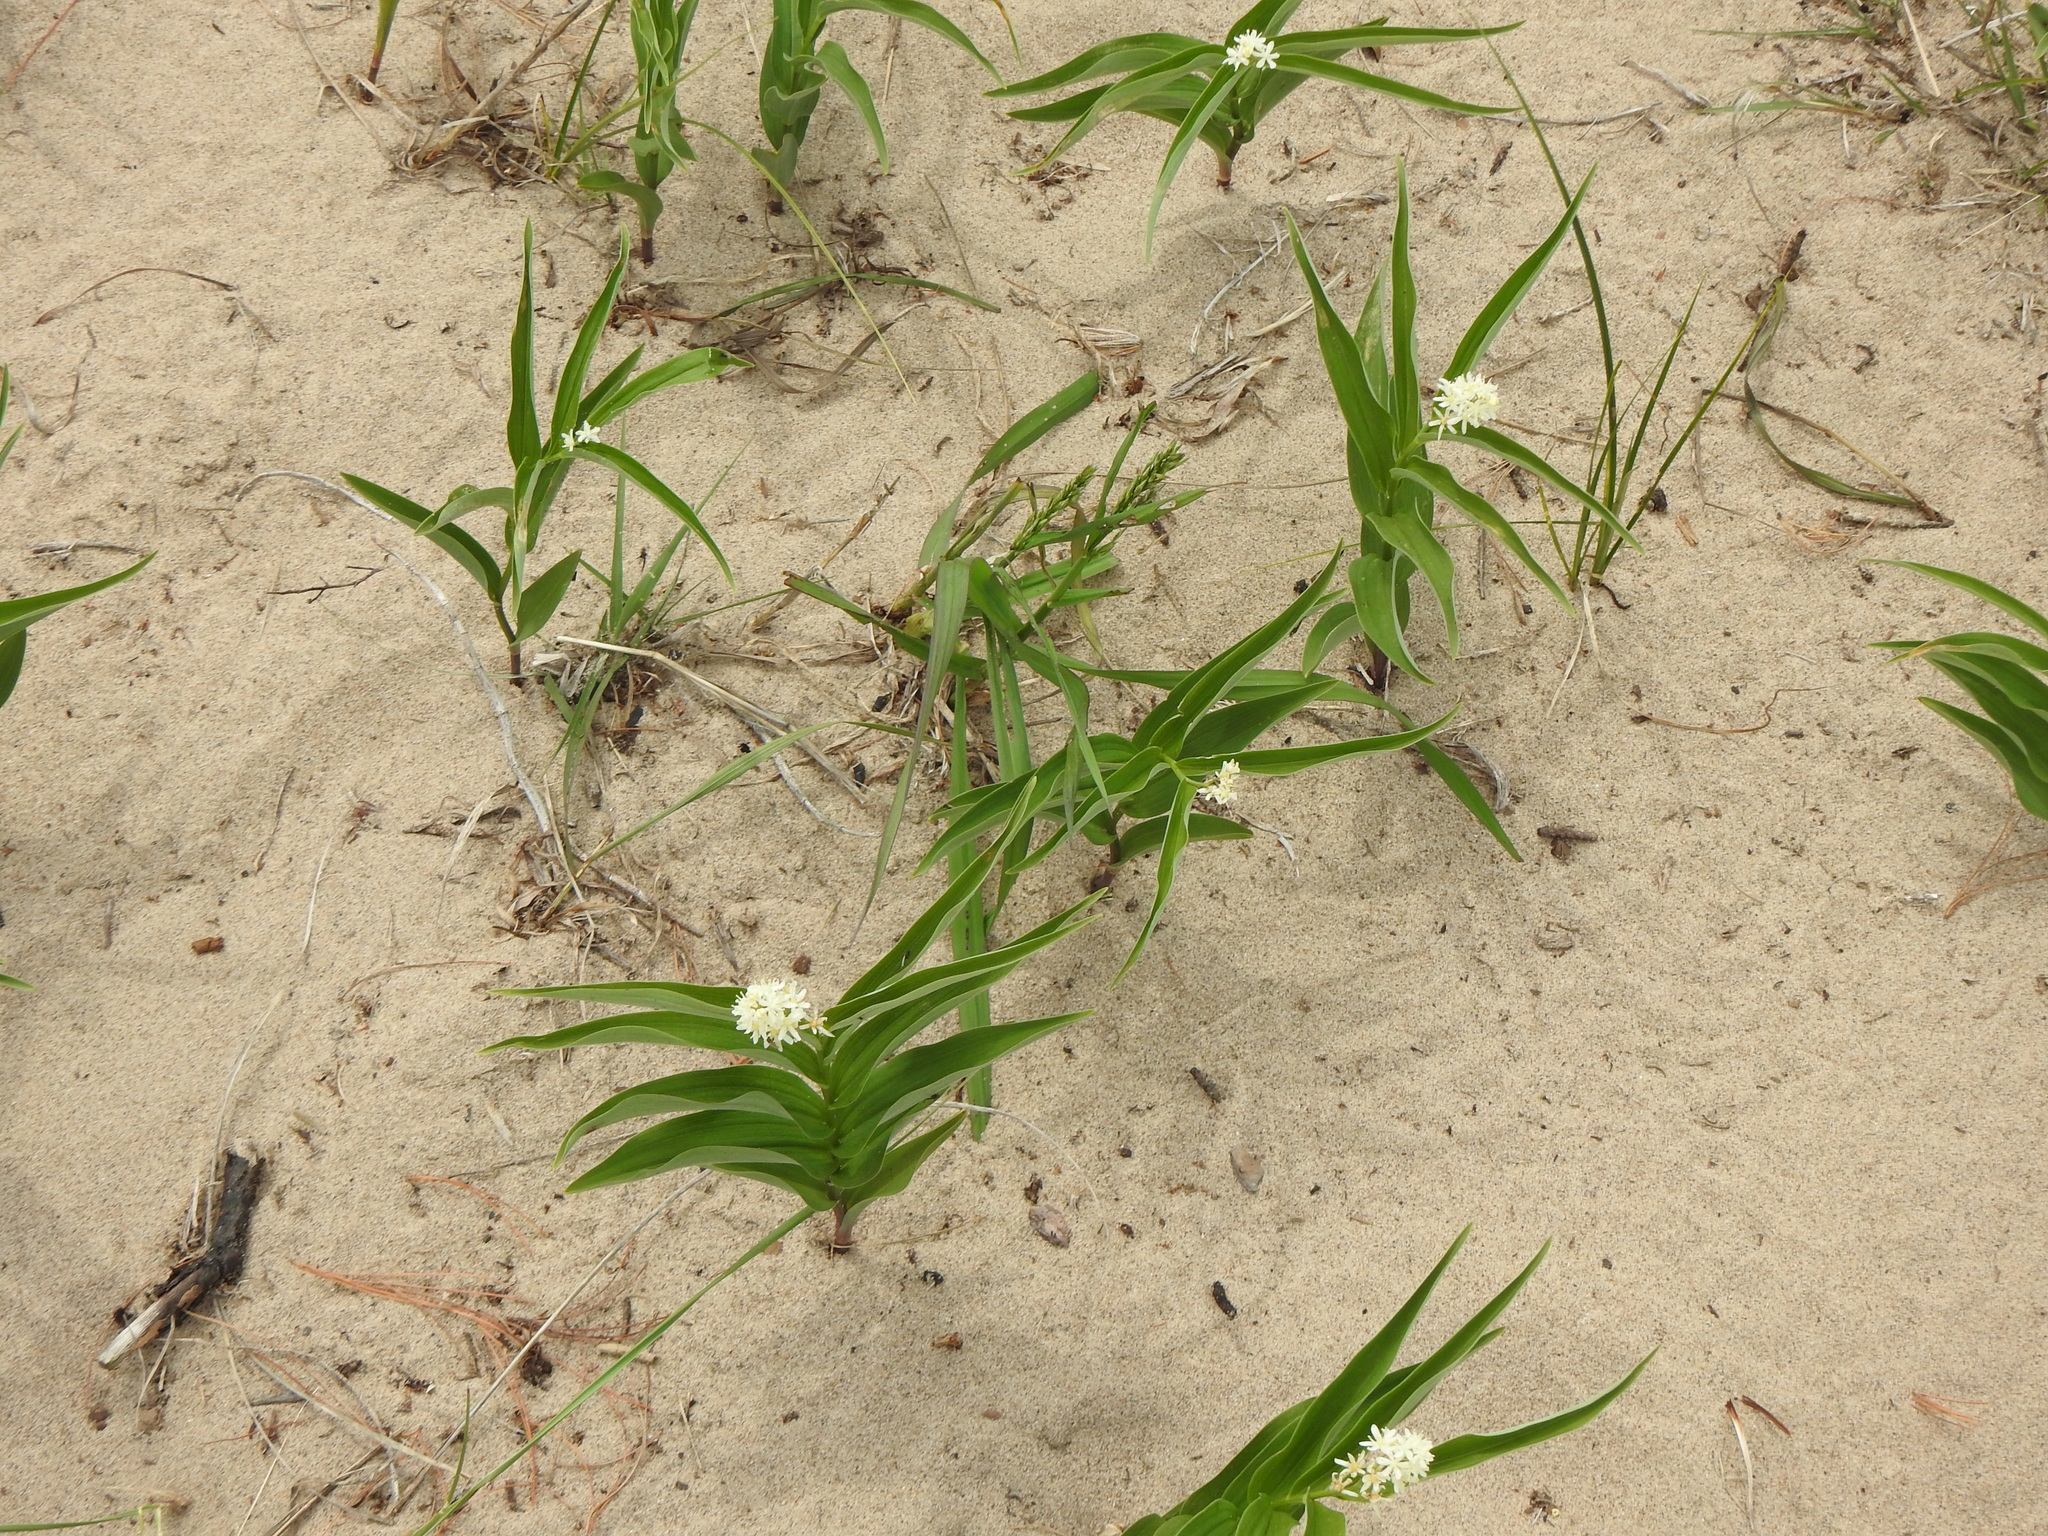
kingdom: Plantae
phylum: Tracheophyta
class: Liliopsida
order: Asparagales
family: Asparagaceae
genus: Maianthemum
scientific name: Maianthemum stellatum
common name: Little false solomon's seal
